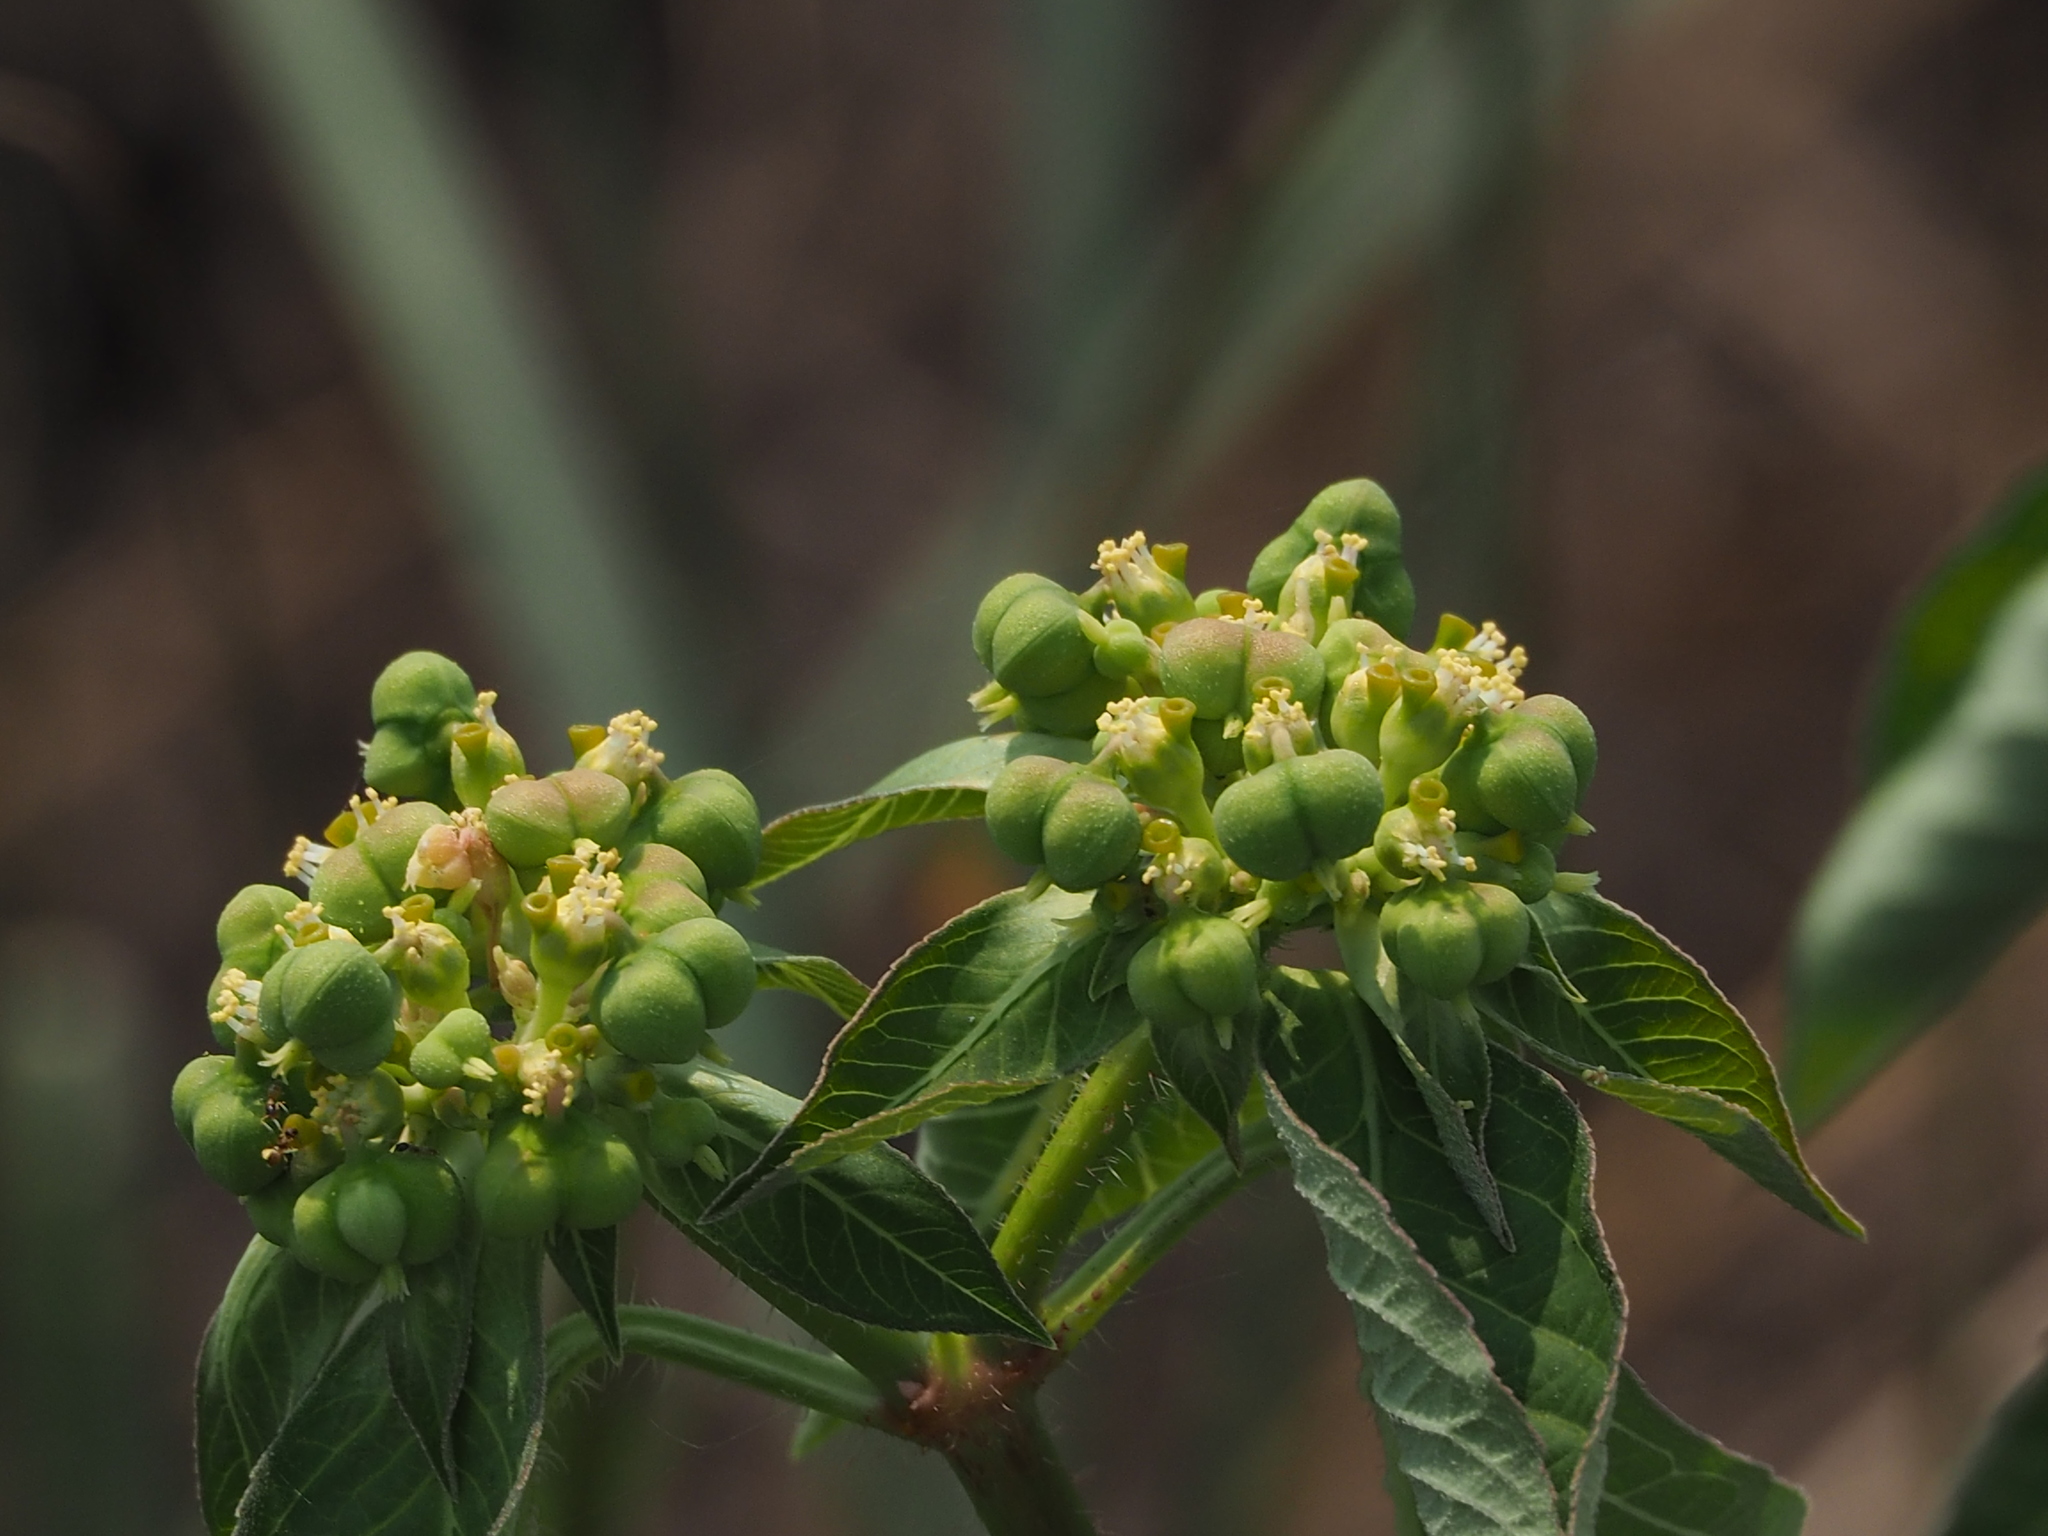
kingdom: Plantae
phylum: Tracheophyta
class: Magnoliopsida
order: Malpighiales
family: Euphorbiaceae
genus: Euphorbia
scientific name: Euphorbia heterophylla
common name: Mexican fireplant
